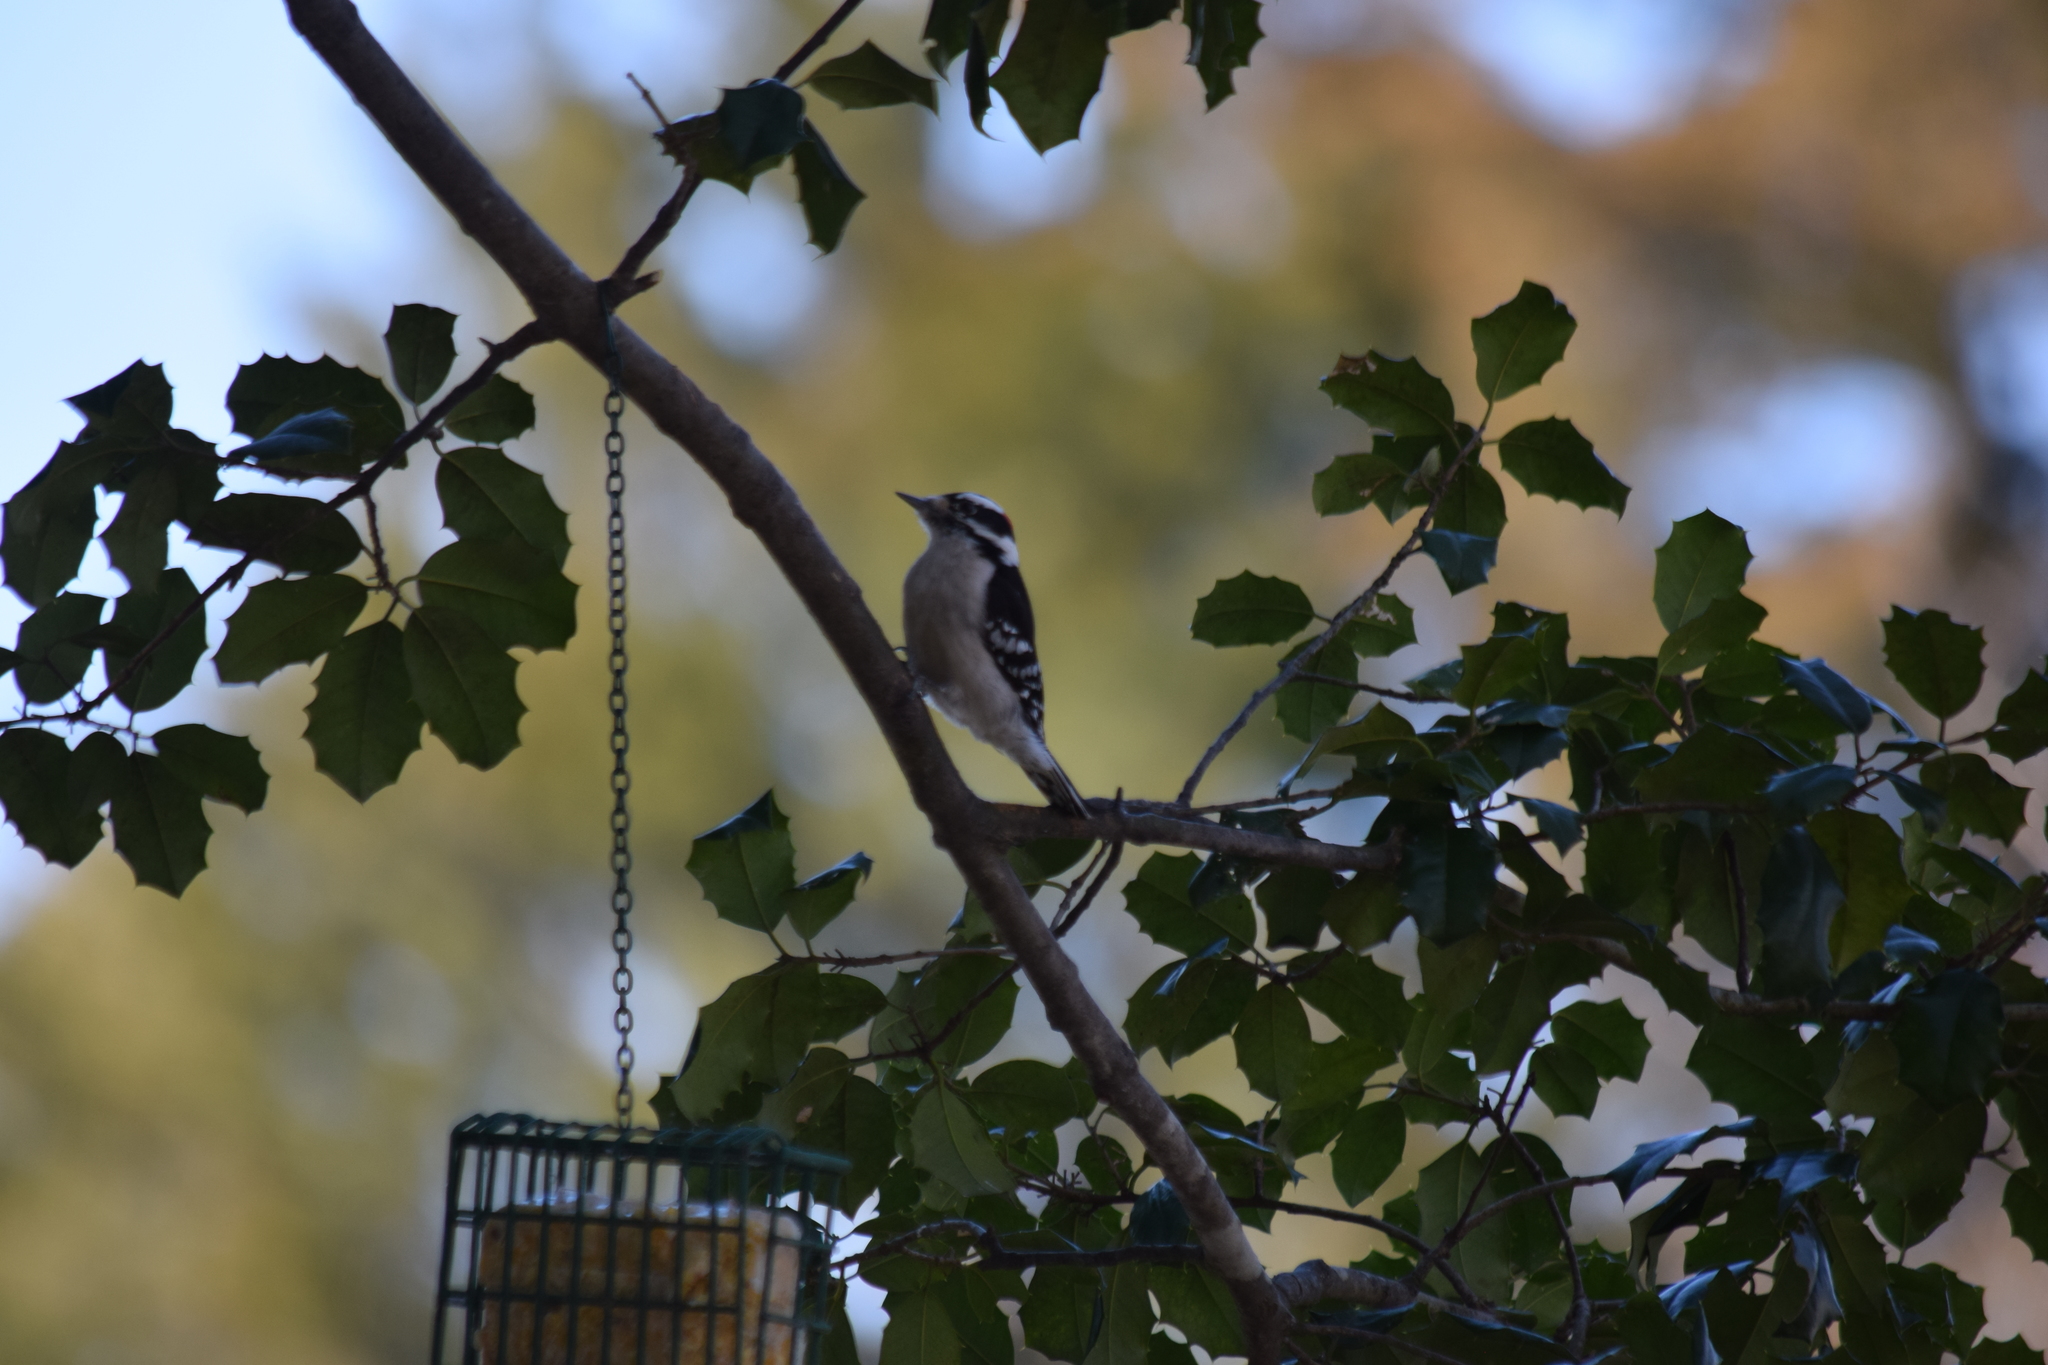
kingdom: Animalia
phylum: Chordata
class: Aves
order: Piciformes
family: Picidae
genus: Dryobates
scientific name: Dryobates pubescens
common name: Downy woodpecker
